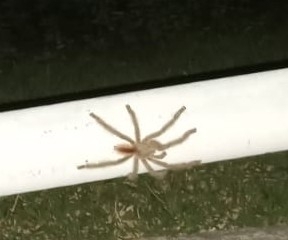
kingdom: Animalia
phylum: Arthropoda
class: Arachnida
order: Araneae
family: Theraphosidae
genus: Iridopelma
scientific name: Iridopelma hirsutum
